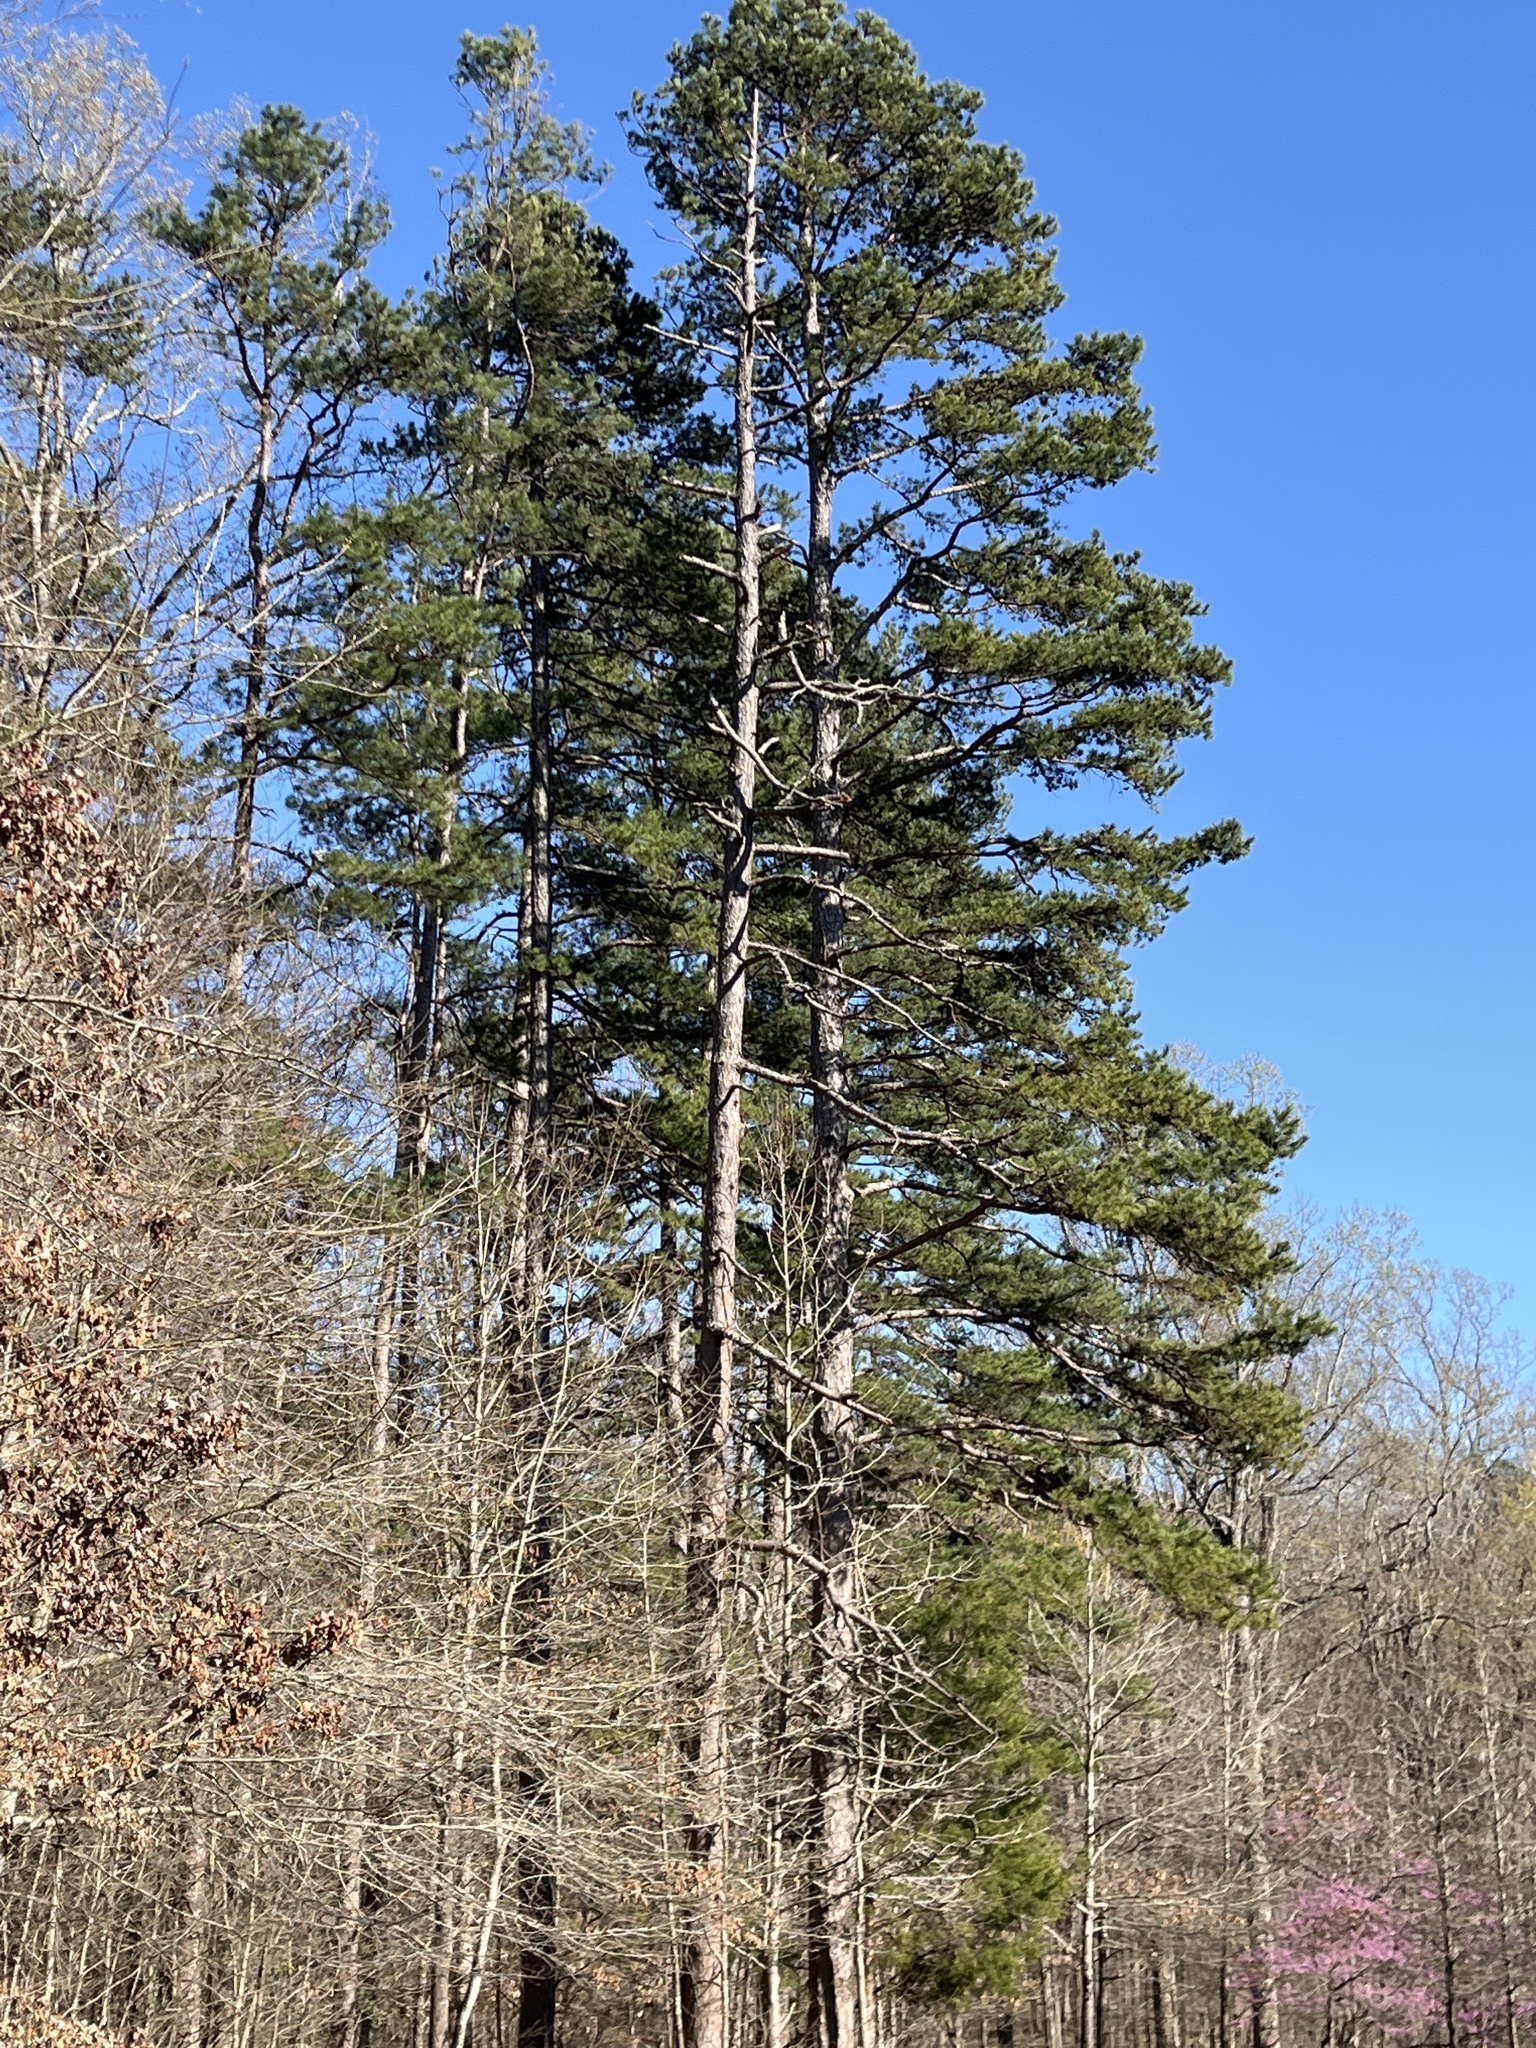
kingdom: Plantae
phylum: Tracheophyta
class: Pinopsida
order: Pinales
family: Pinaceae
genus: Pinus
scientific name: Pinus echinata
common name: Shortleaf pine
